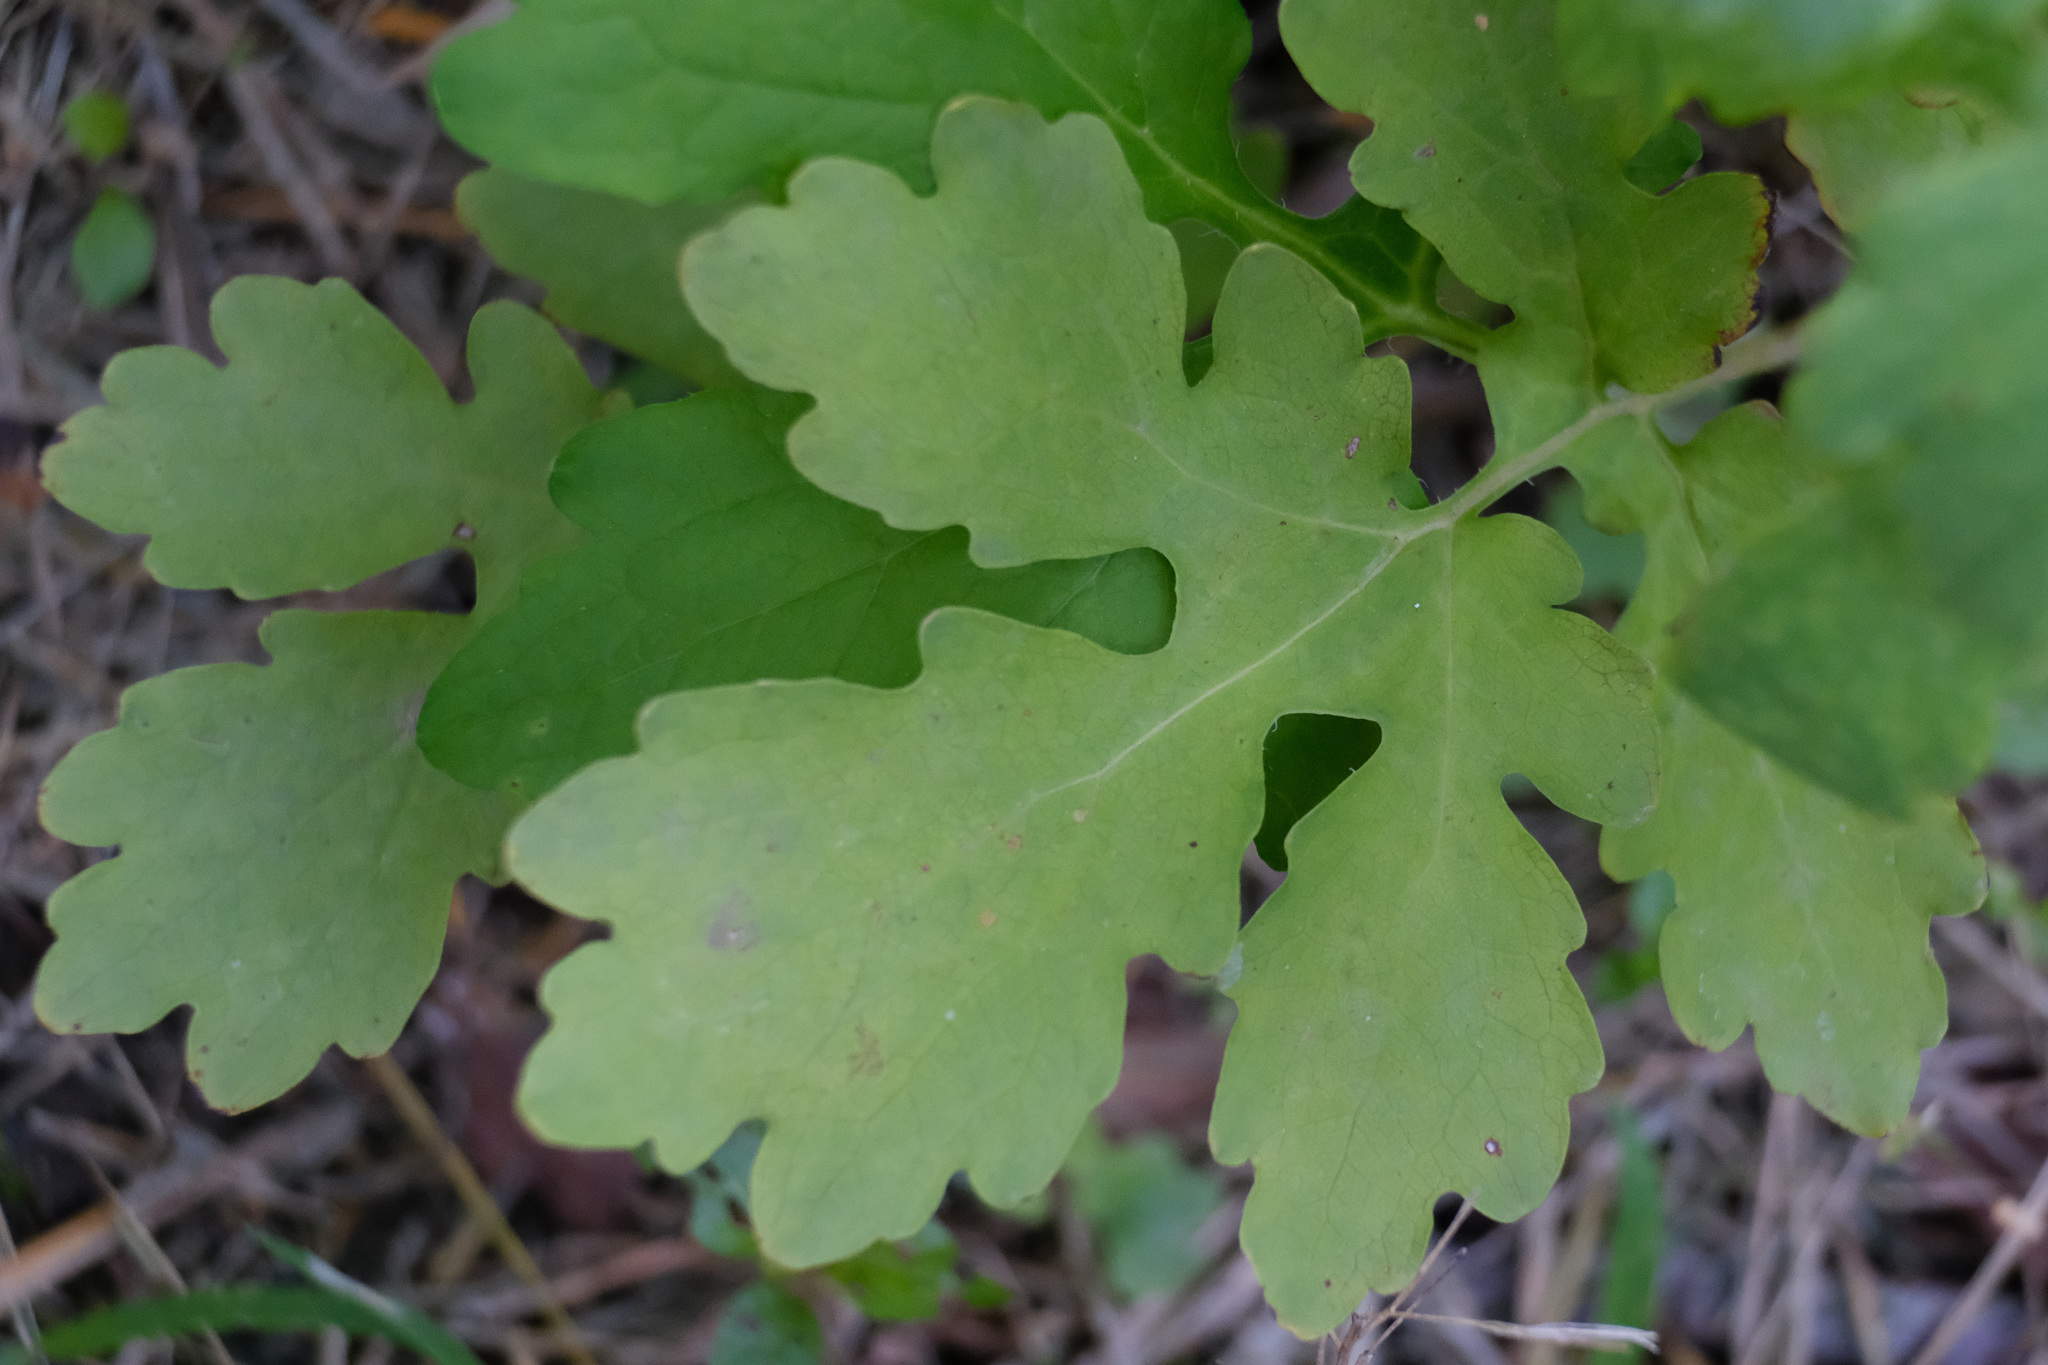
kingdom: Plantae
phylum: Tracheophyta
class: Magnoliopsida
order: Ranunculales
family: Papaveraceae
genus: Stylophorum
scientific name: Stylophorum diphyllum
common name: Celandine poppy
